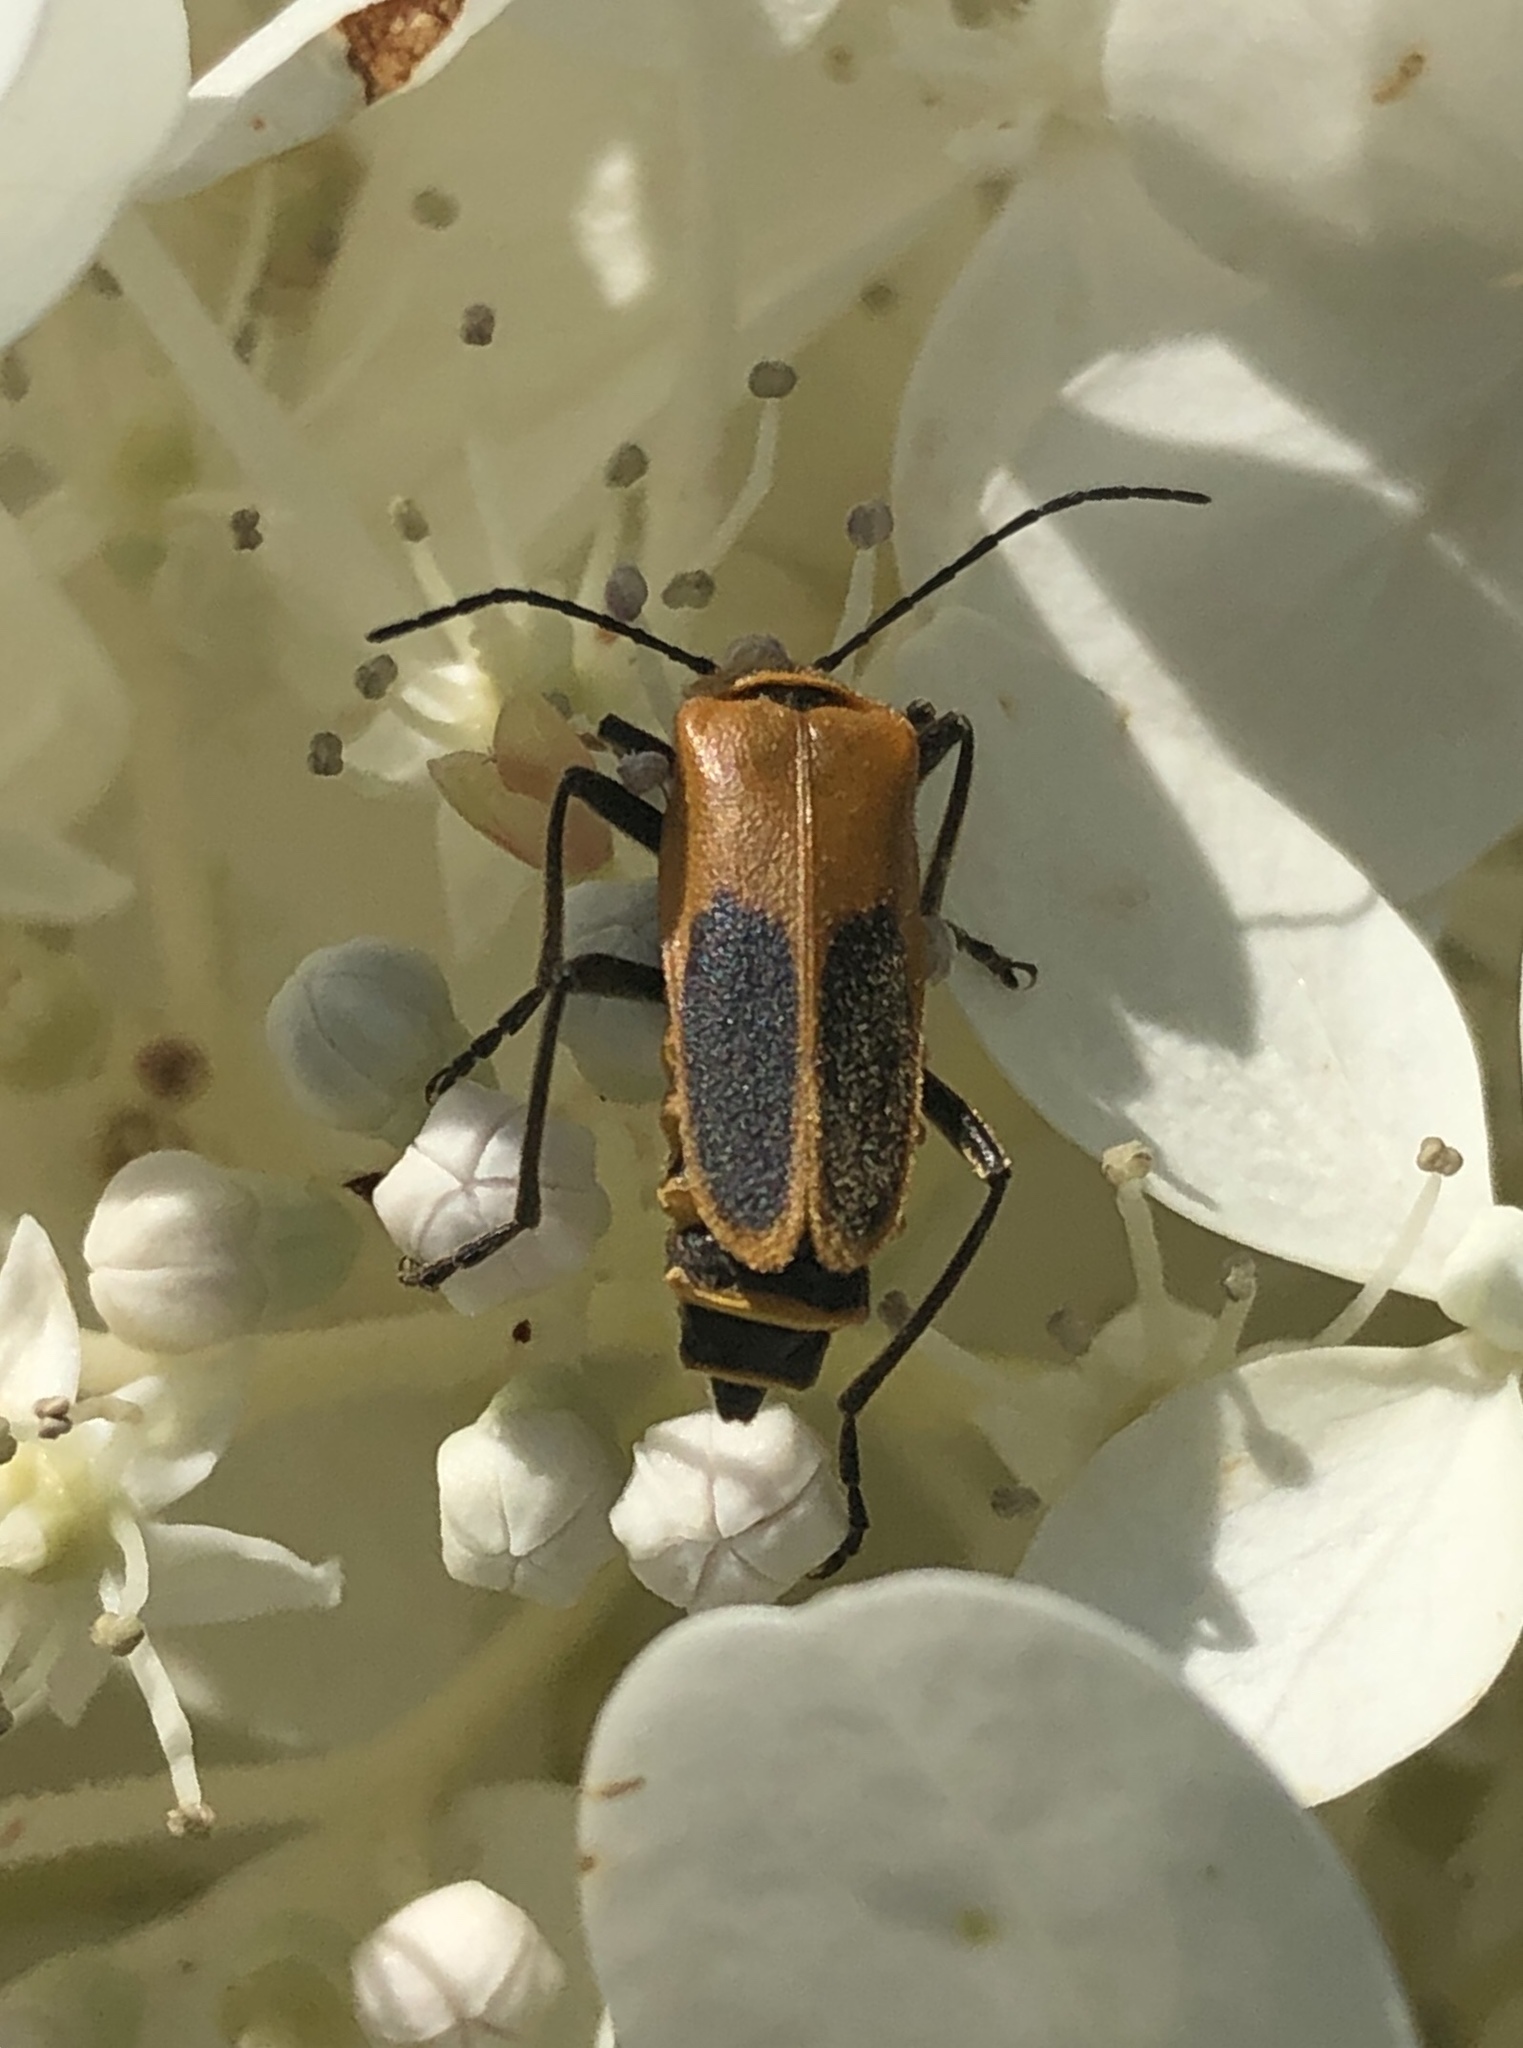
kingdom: Animalia
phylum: Arthropoda
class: Insecta
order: Coleoptera
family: Cantharidae
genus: Chauliognathus
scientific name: Chauliognathus pensylvanicus
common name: Goldenrod soldier beetle
